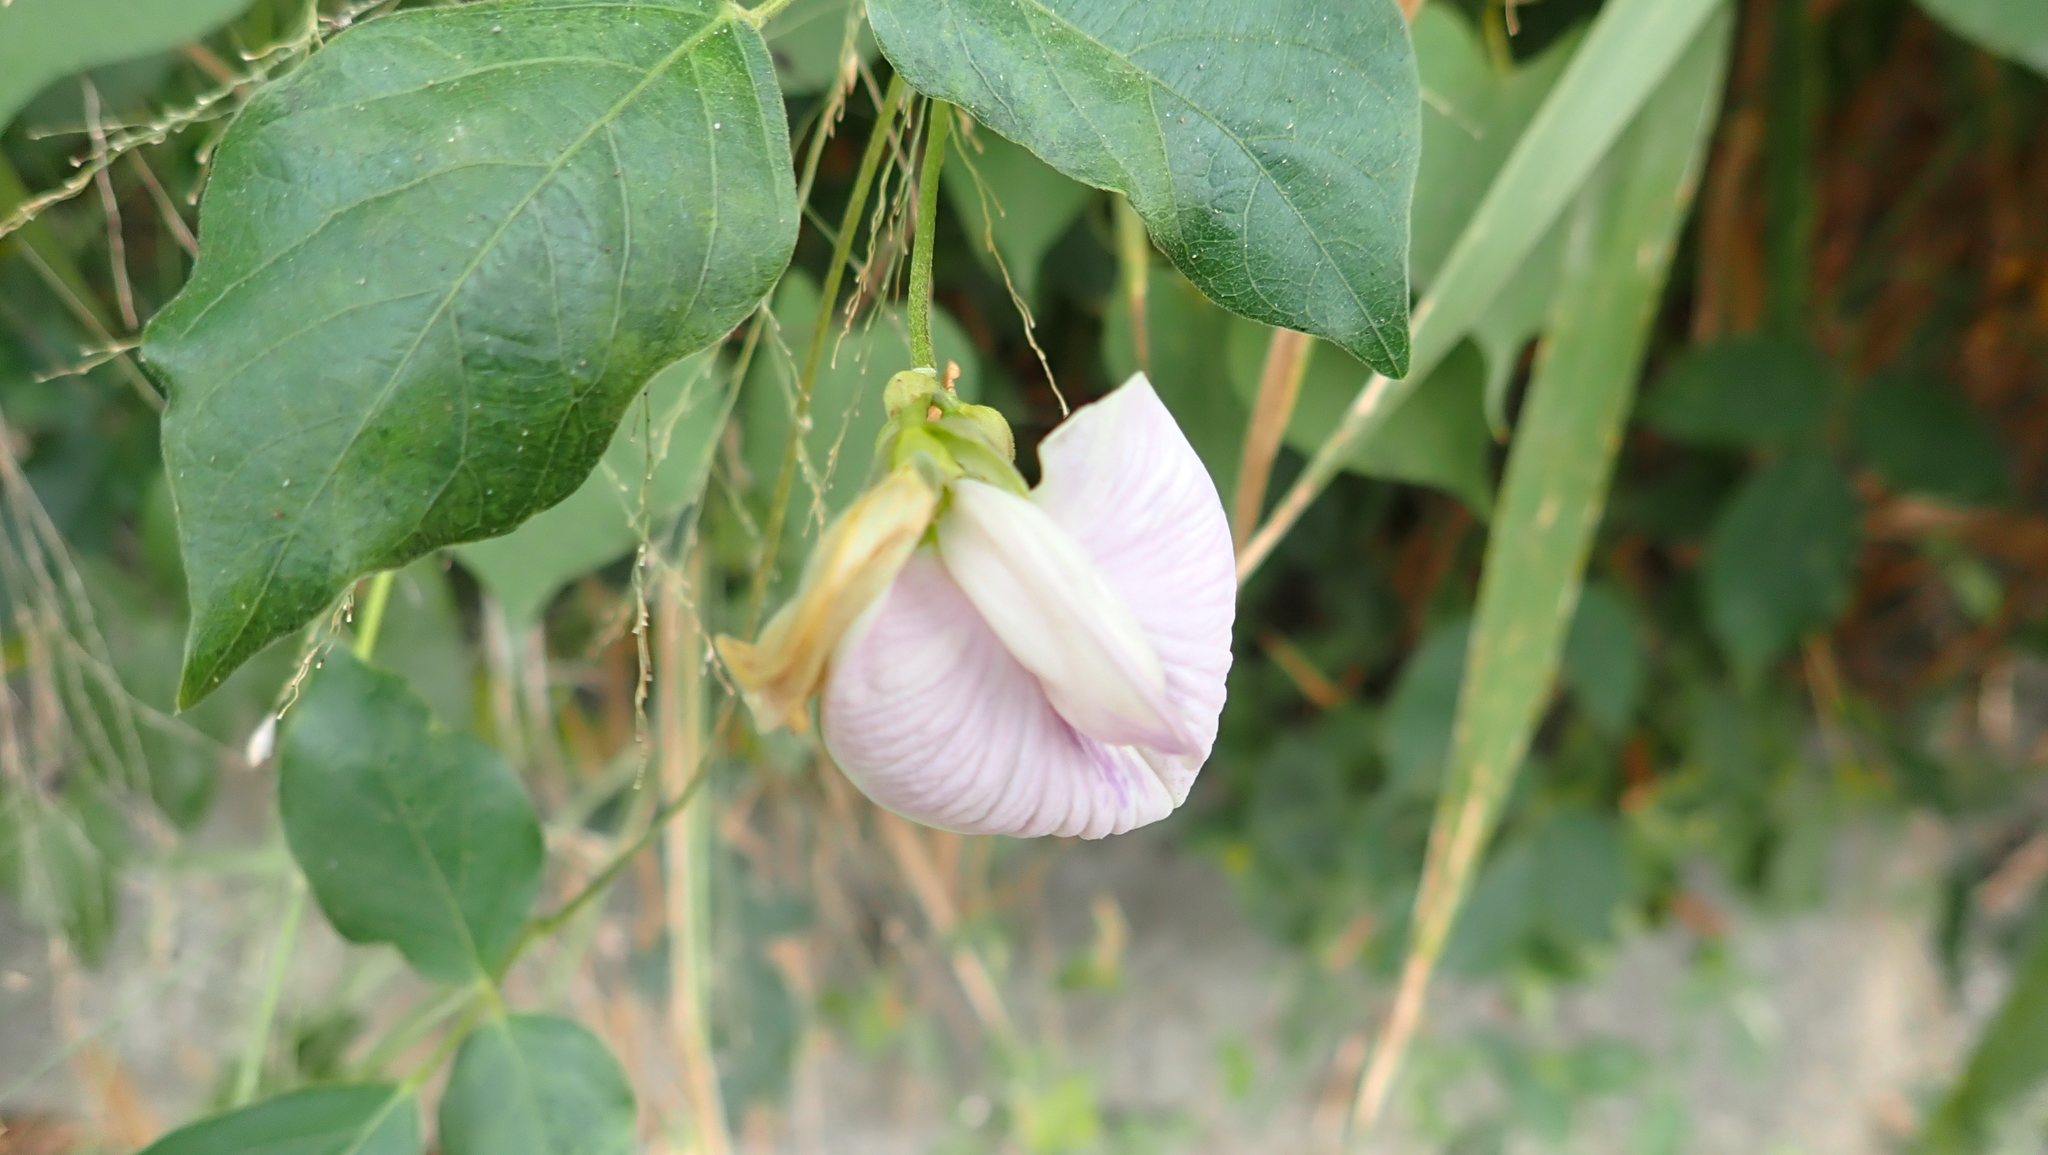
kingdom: Plantae
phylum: Tracheophyta
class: Magnoliopsida
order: Fabales
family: Fabaceae
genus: Centrosema
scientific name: Centrosema pubescens
